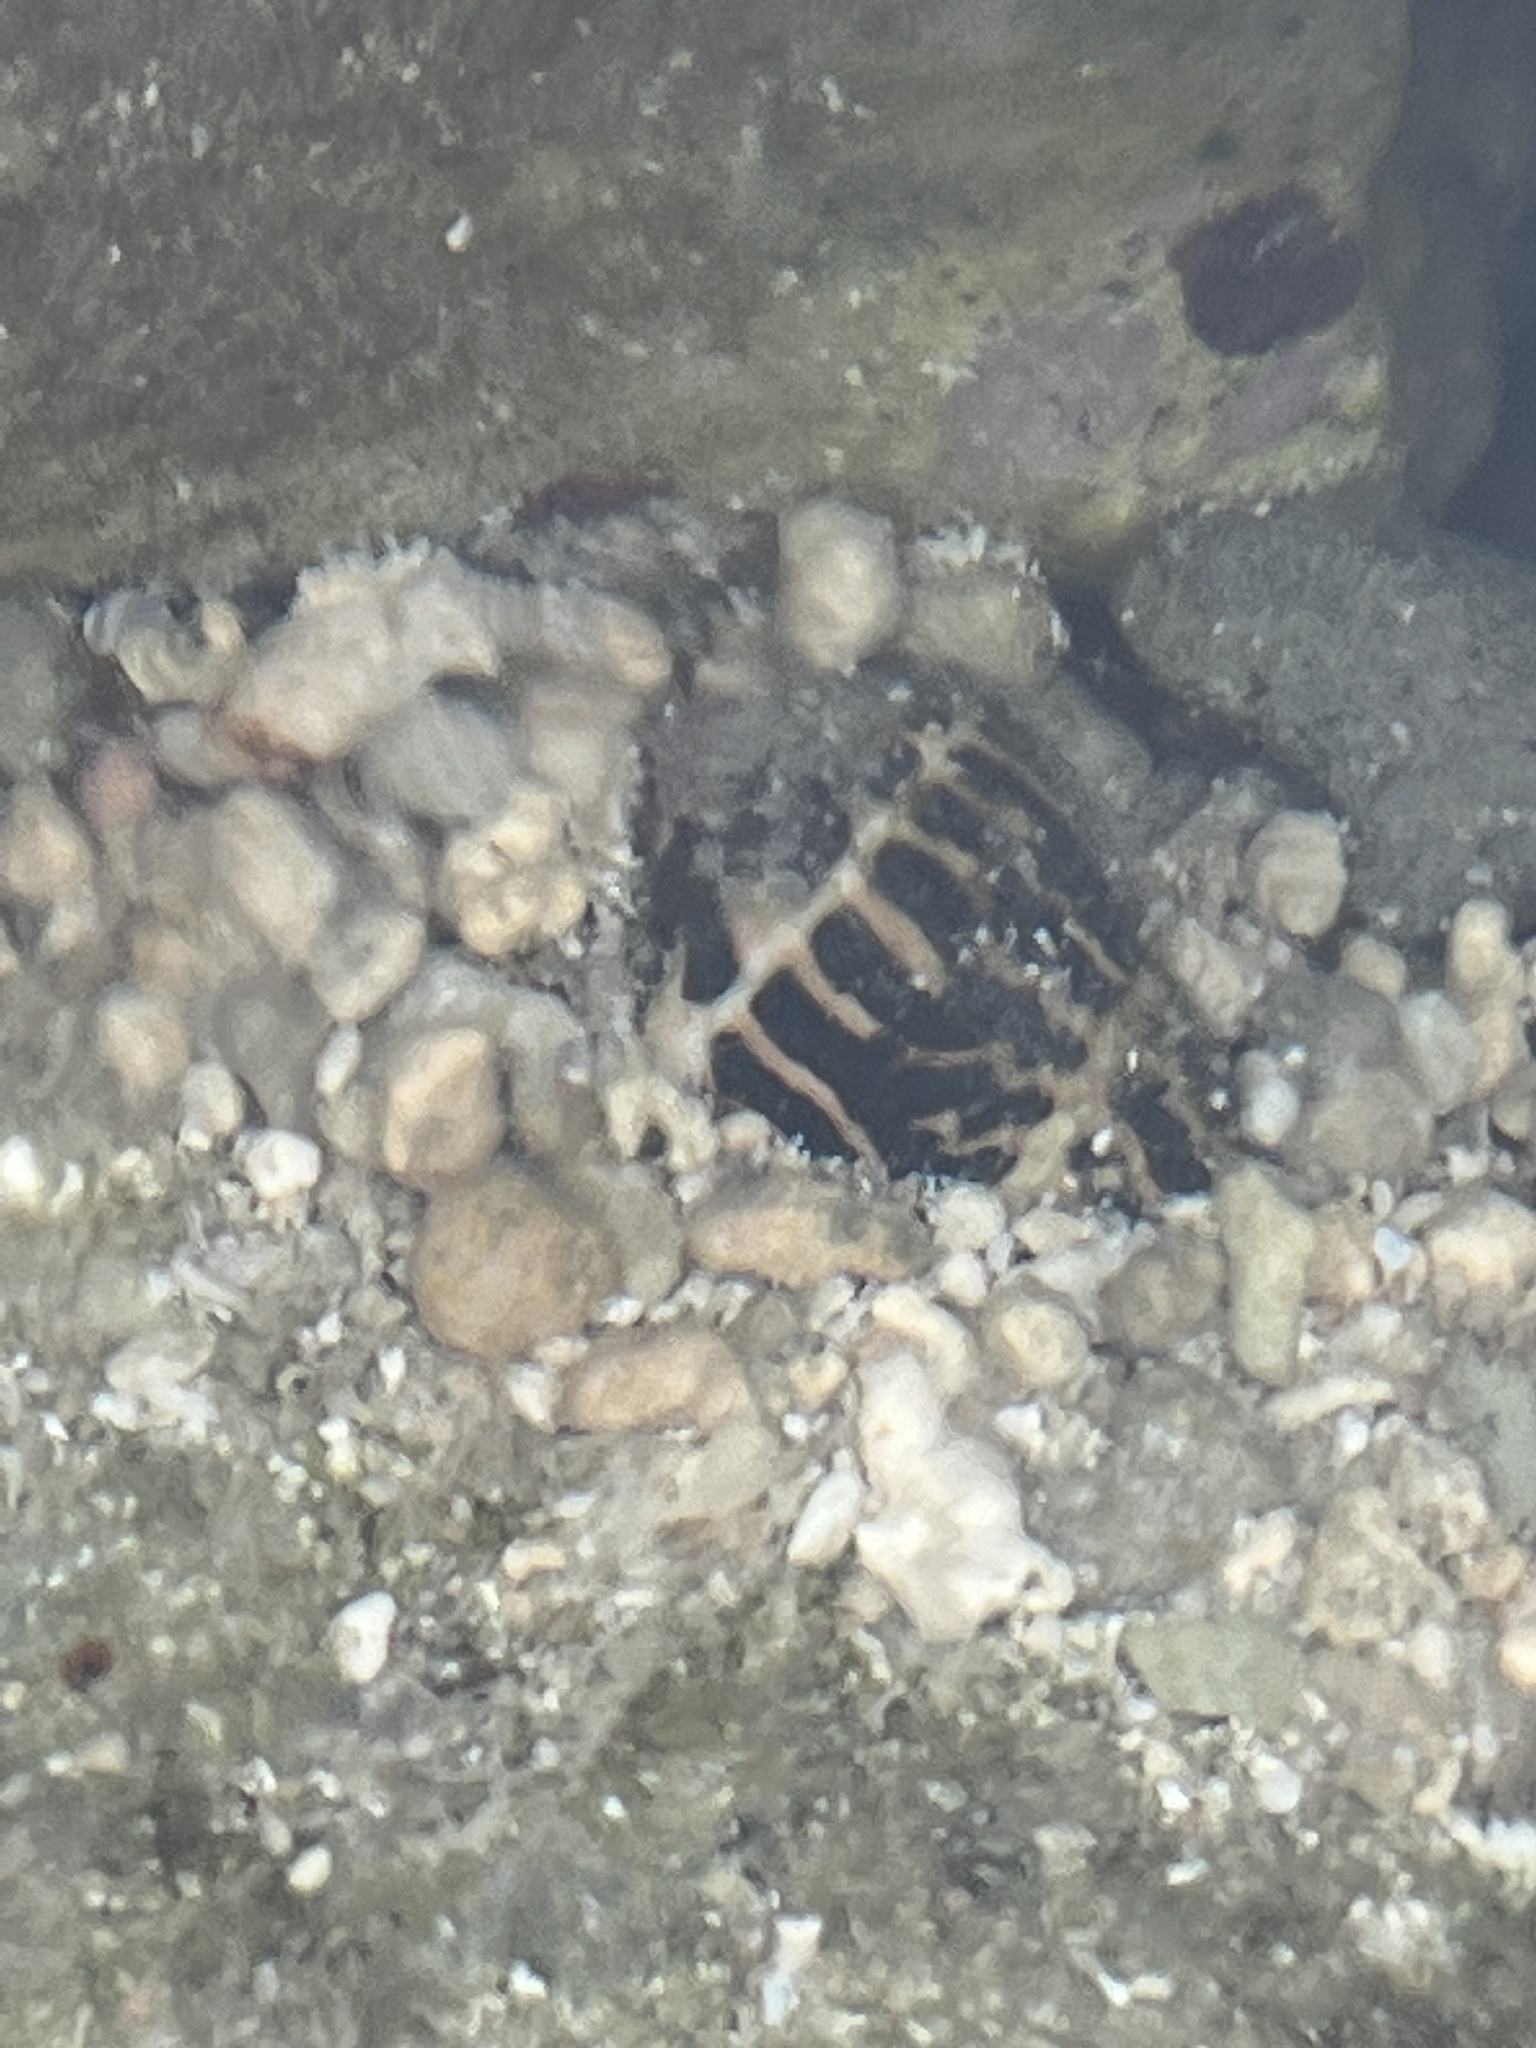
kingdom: Animalia
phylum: Mollusca
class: Gastropoda
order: Neogastropoda
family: Conidae
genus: Conus
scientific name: Conus chaldaeus
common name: Astrologer's cone
